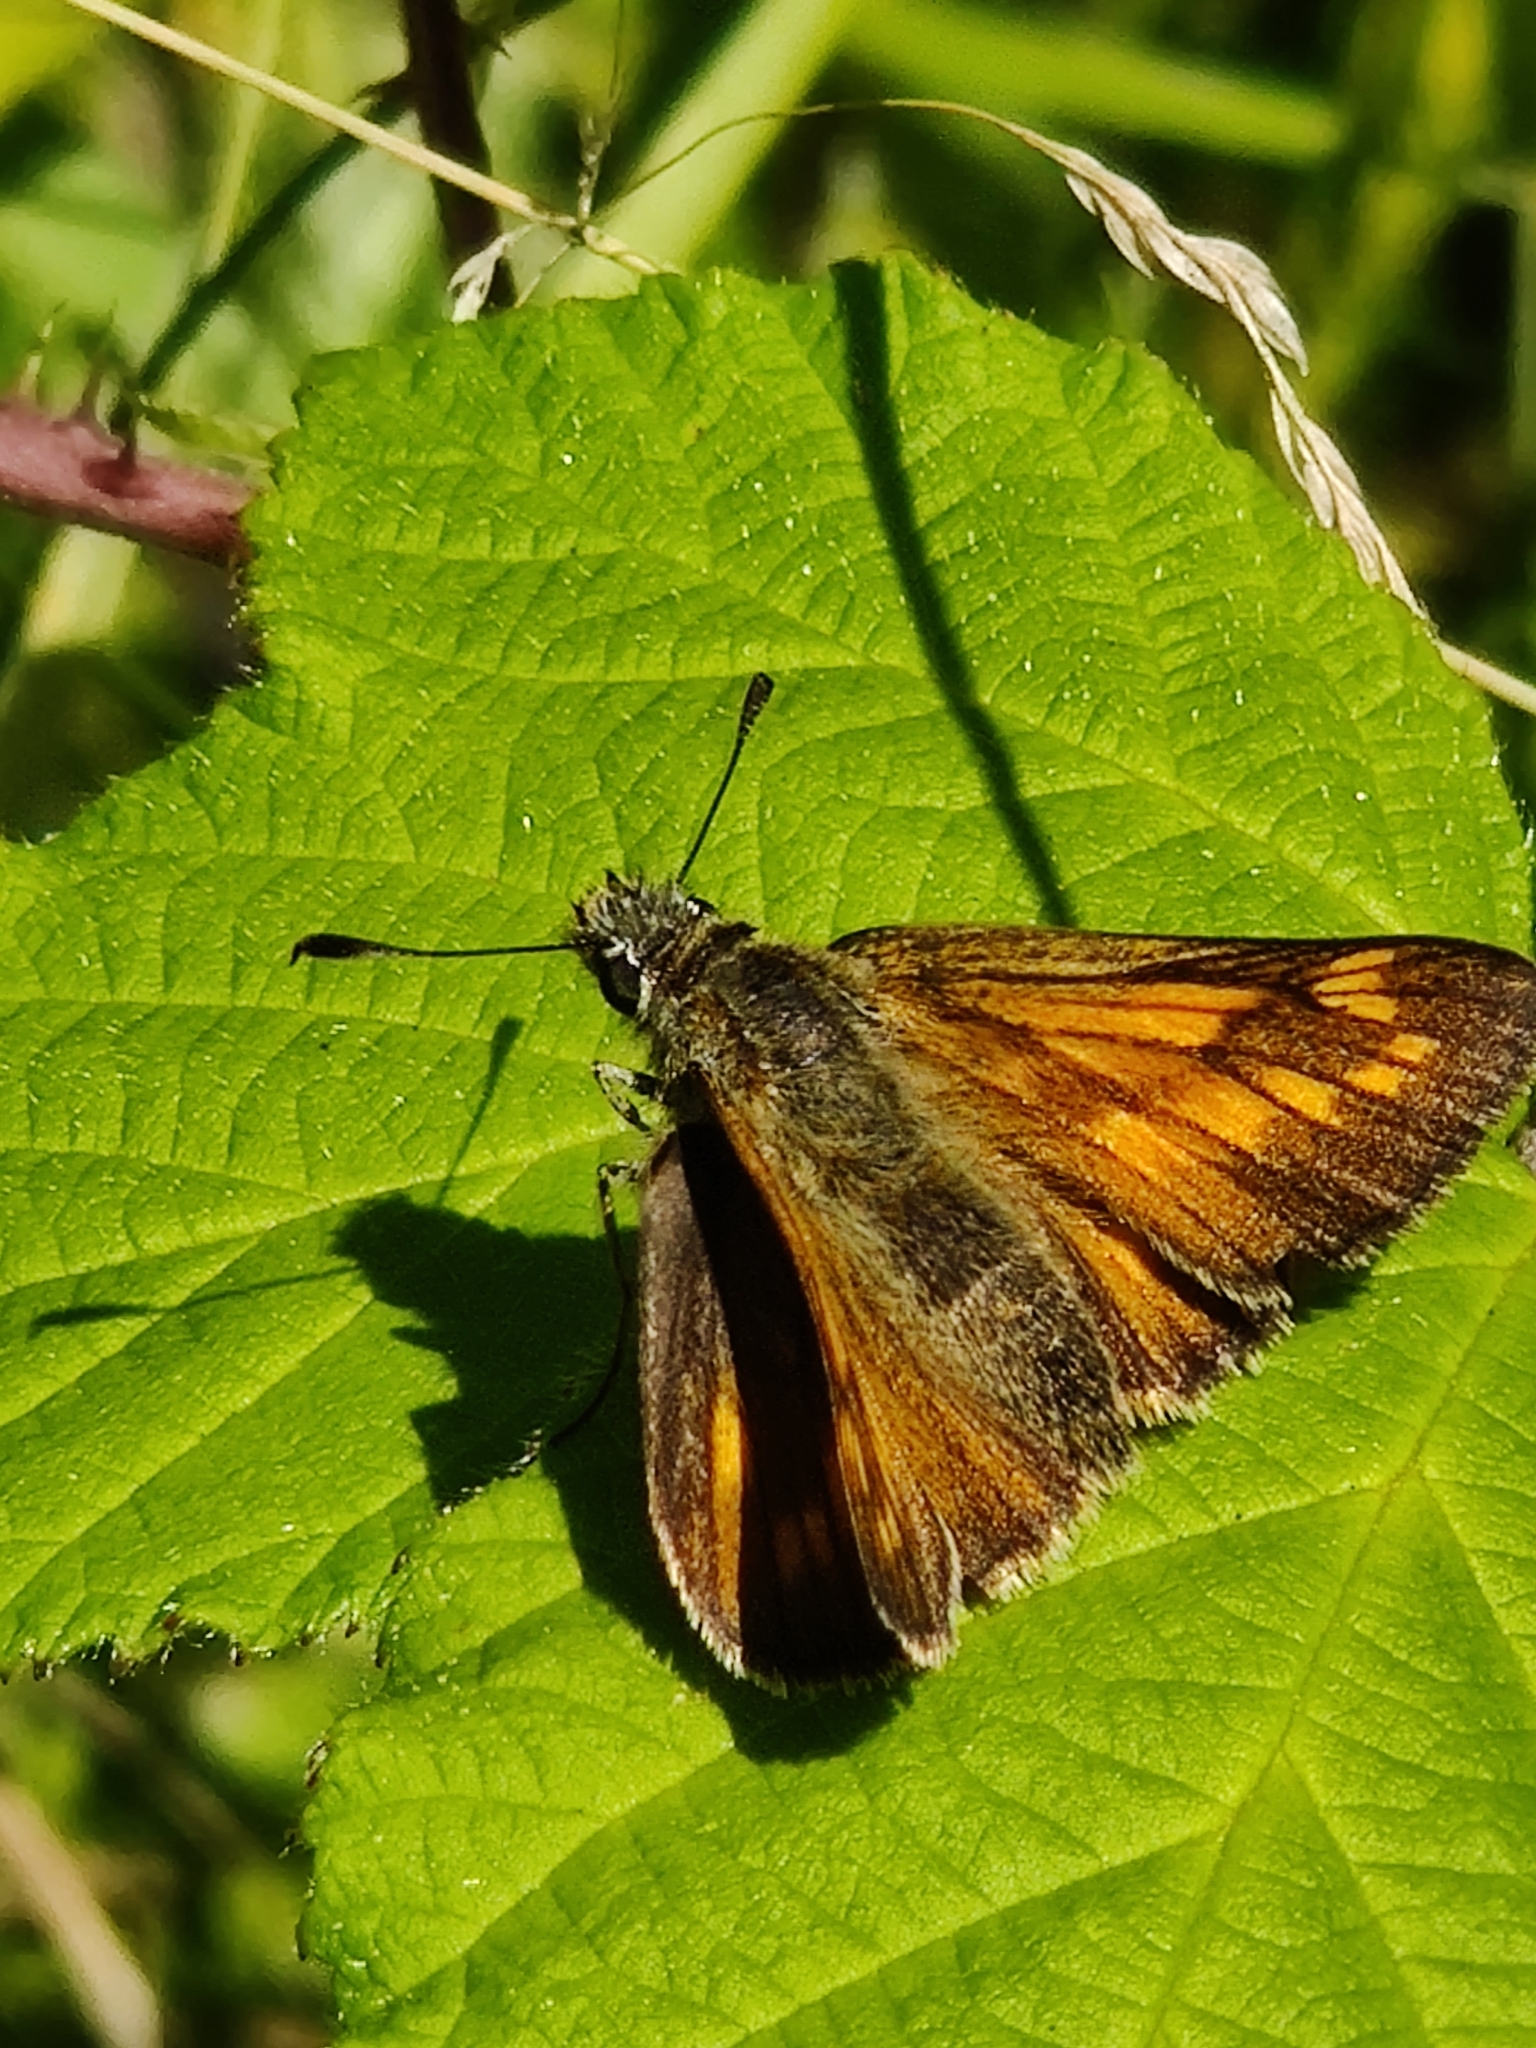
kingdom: Animalia
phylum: Arthropoda
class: Insecta
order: Lepidoptera
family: Hesperiidae
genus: Ochlodes
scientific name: Ochlodes venata
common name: Large skipper
